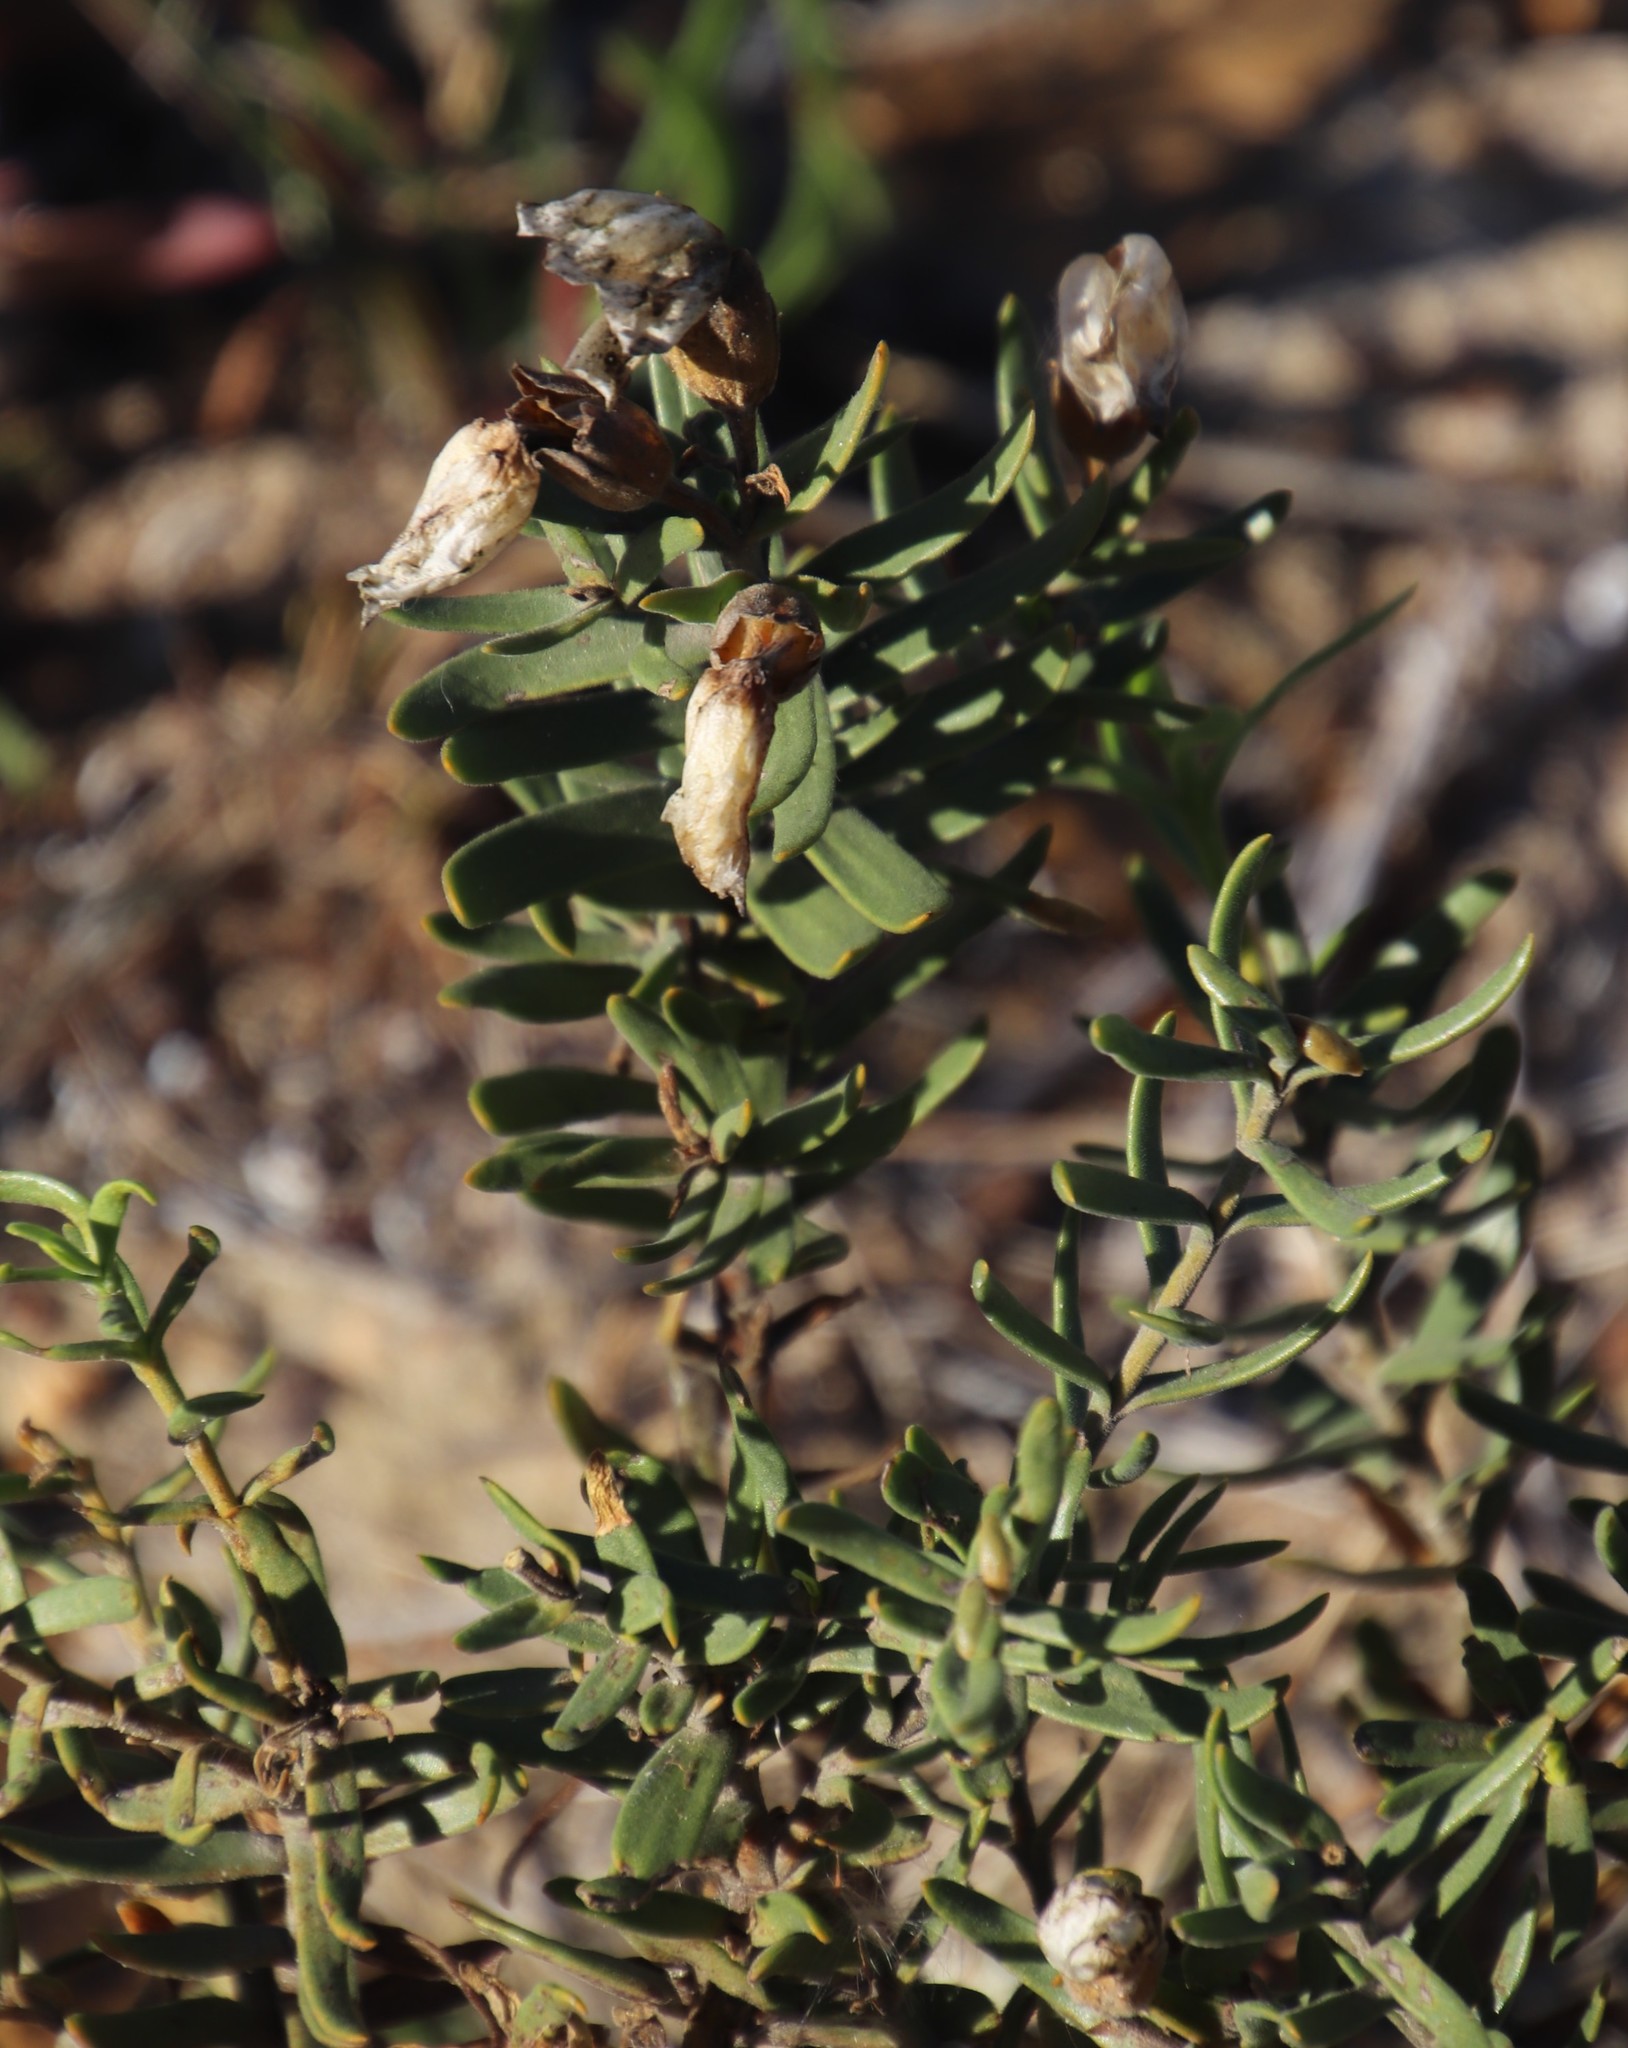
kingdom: Plantae
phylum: Tracheophyta
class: Magnoliopsida
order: Gentianales
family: Gentianaceae
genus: Orphium
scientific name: Orphium frutescens
